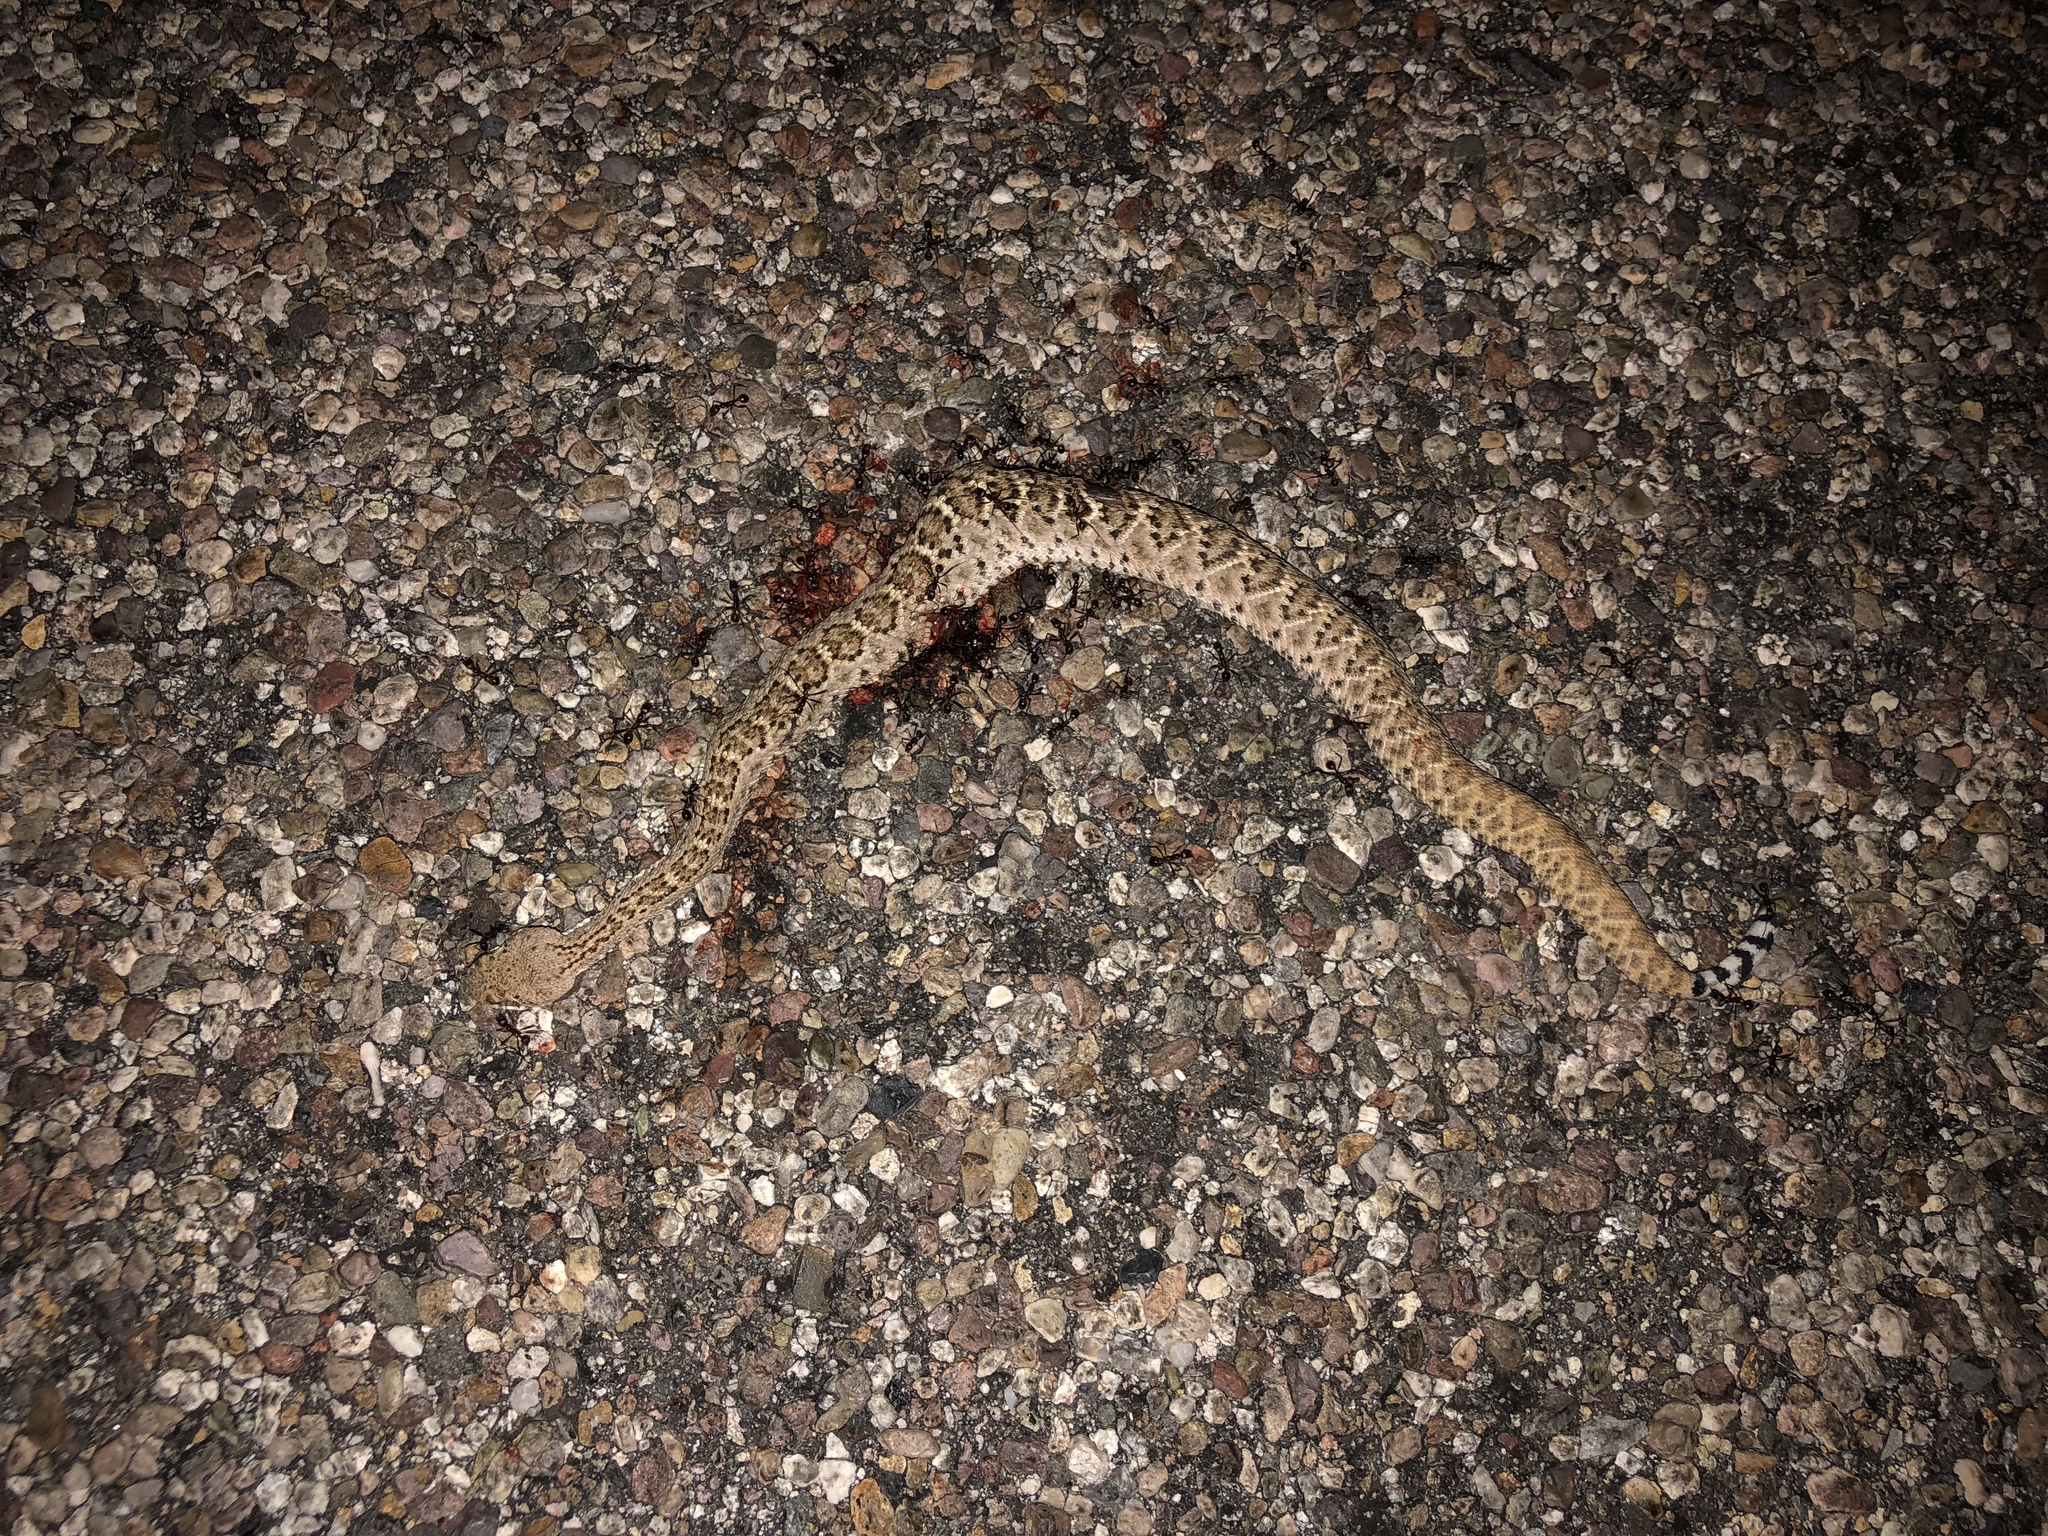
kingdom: Animalia
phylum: Chordata
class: Squamata
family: Viperidae
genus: Crotalus
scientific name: Crotalus atrox
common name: Western diamond-backed rattlesnake
